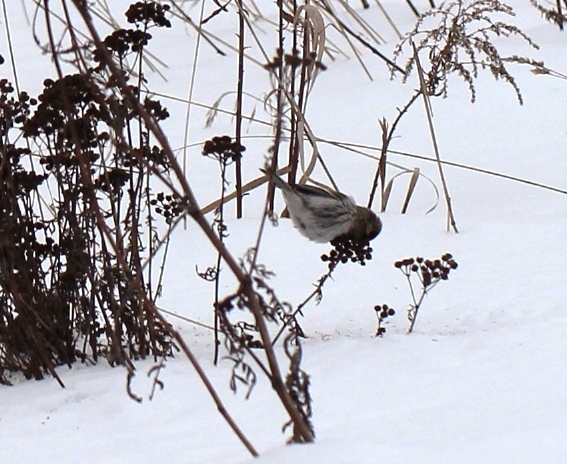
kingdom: Animalia
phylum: Chordata
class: Aves
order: Passeriformes
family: Fringillidae
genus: Acanthis
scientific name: Acanthis flammea
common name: Common redpoll
